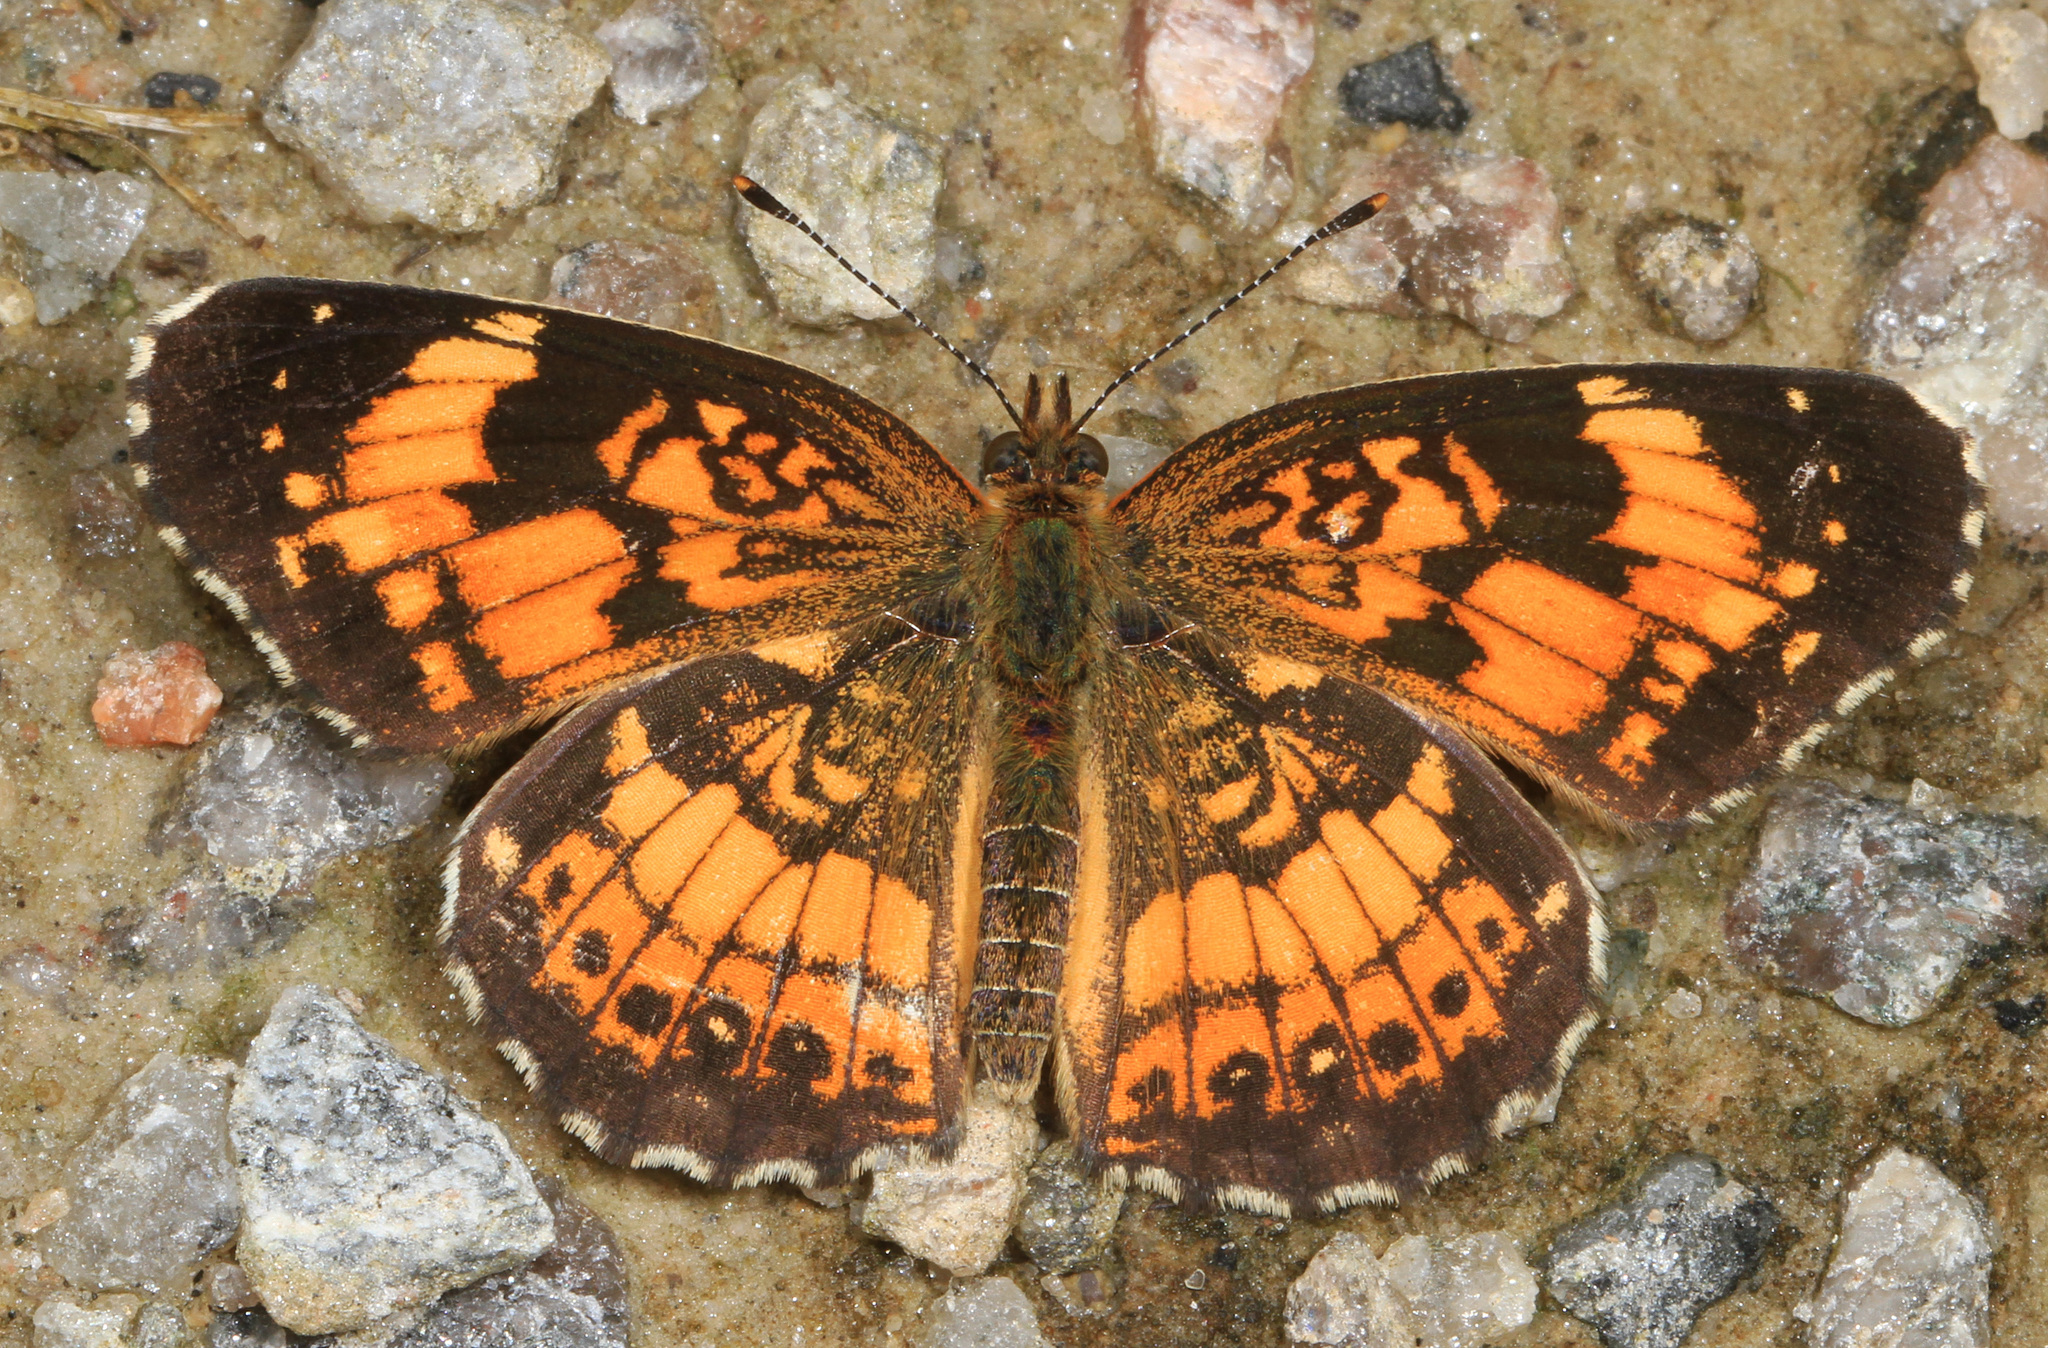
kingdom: Animalia
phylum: Arthropoda
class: Insecta
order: Lepidoptera
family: Nymphalidae
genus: Chlosyne
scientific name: Chlosyne nycteis
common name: Silvery checkerspot
